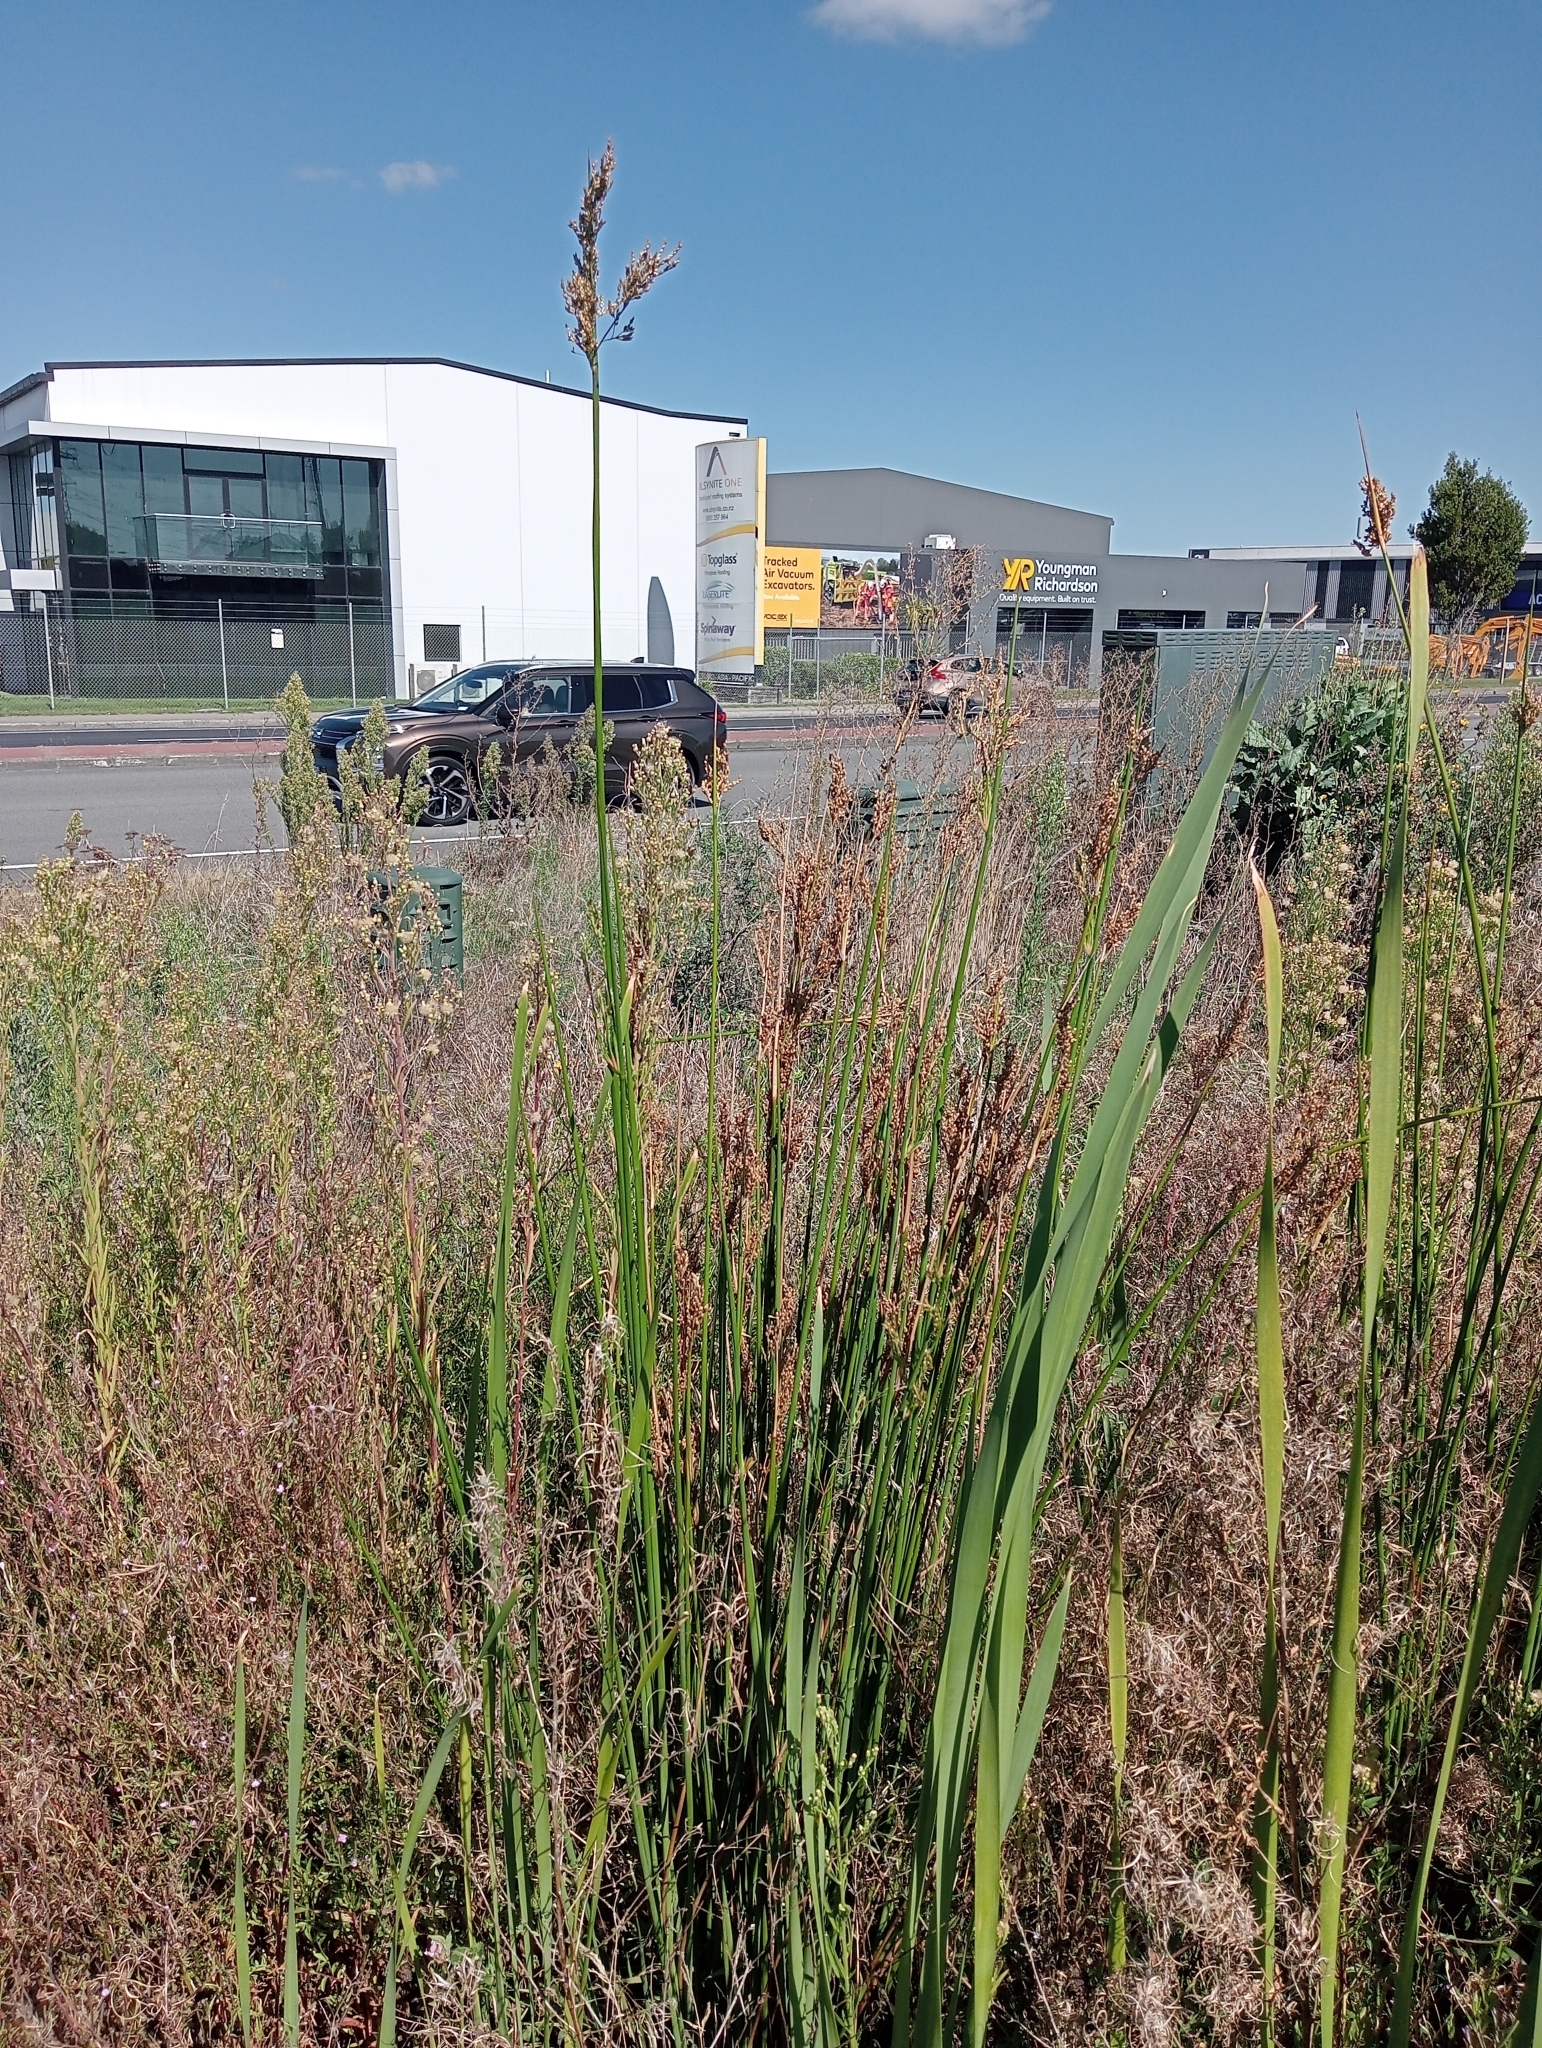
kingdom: Plantae
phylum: Tracheophyta
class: Liliopsida
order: Poales
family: Juncaceae
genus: Juncus
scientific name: Juncus pallidus
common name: Great soft-rush
